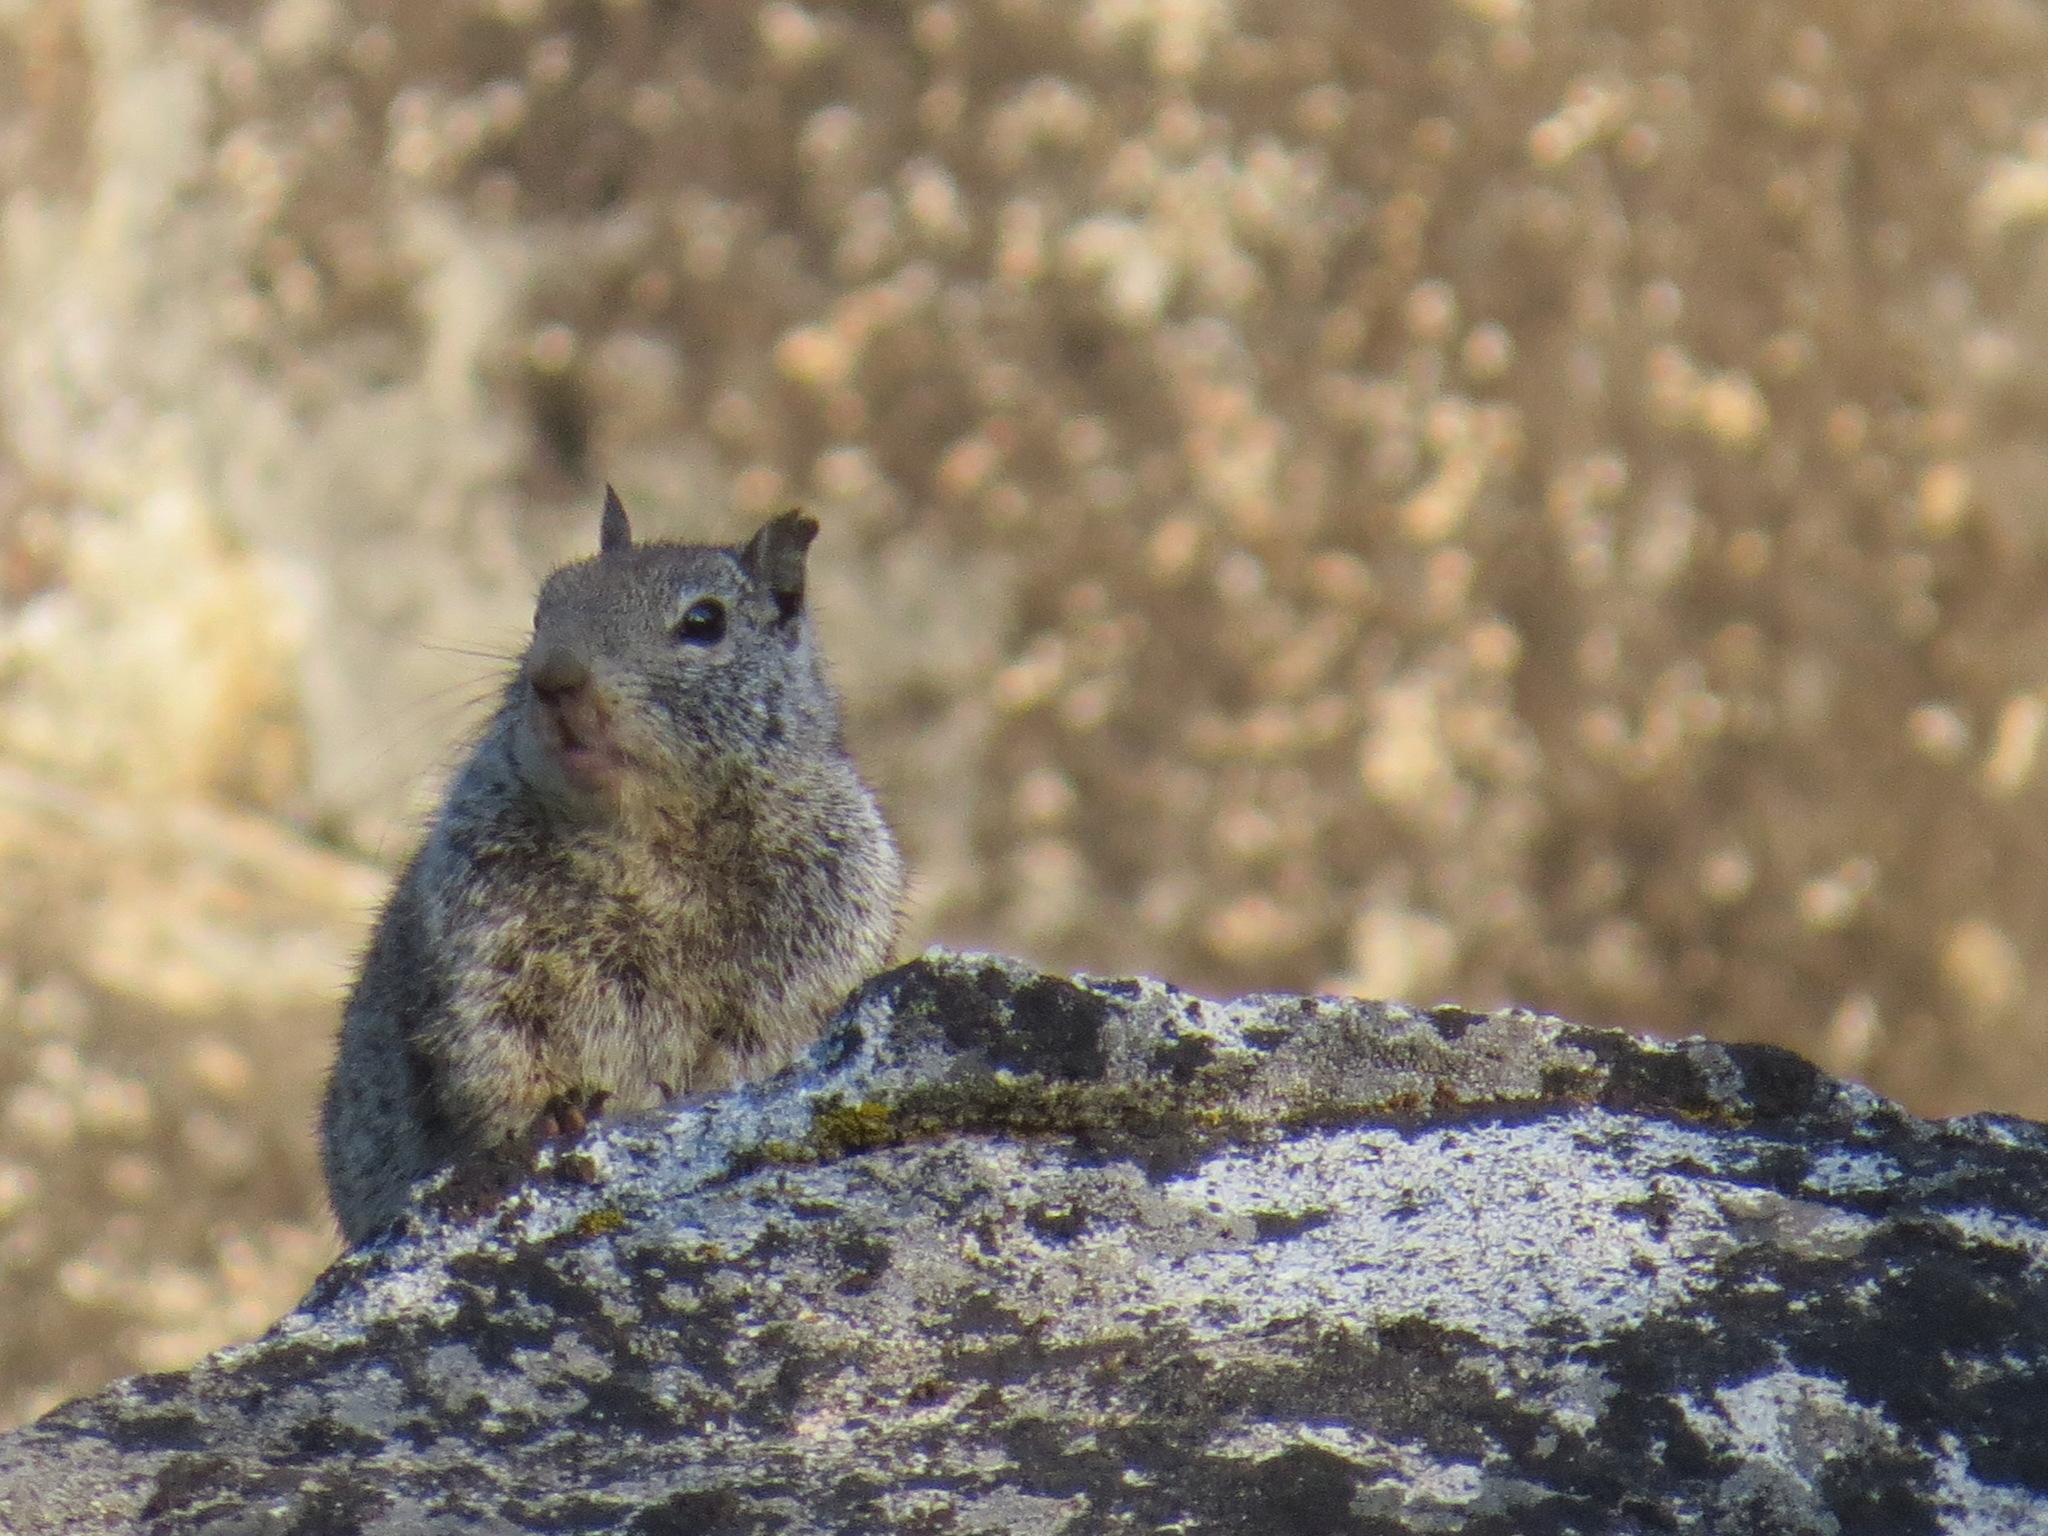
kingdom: Animalia
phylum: Chordata
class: Mammalia
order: Rodentia
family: Sciuridae
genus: Otospermophilus
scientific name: Otospermophilus beecheyi
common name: California ground squirrel
